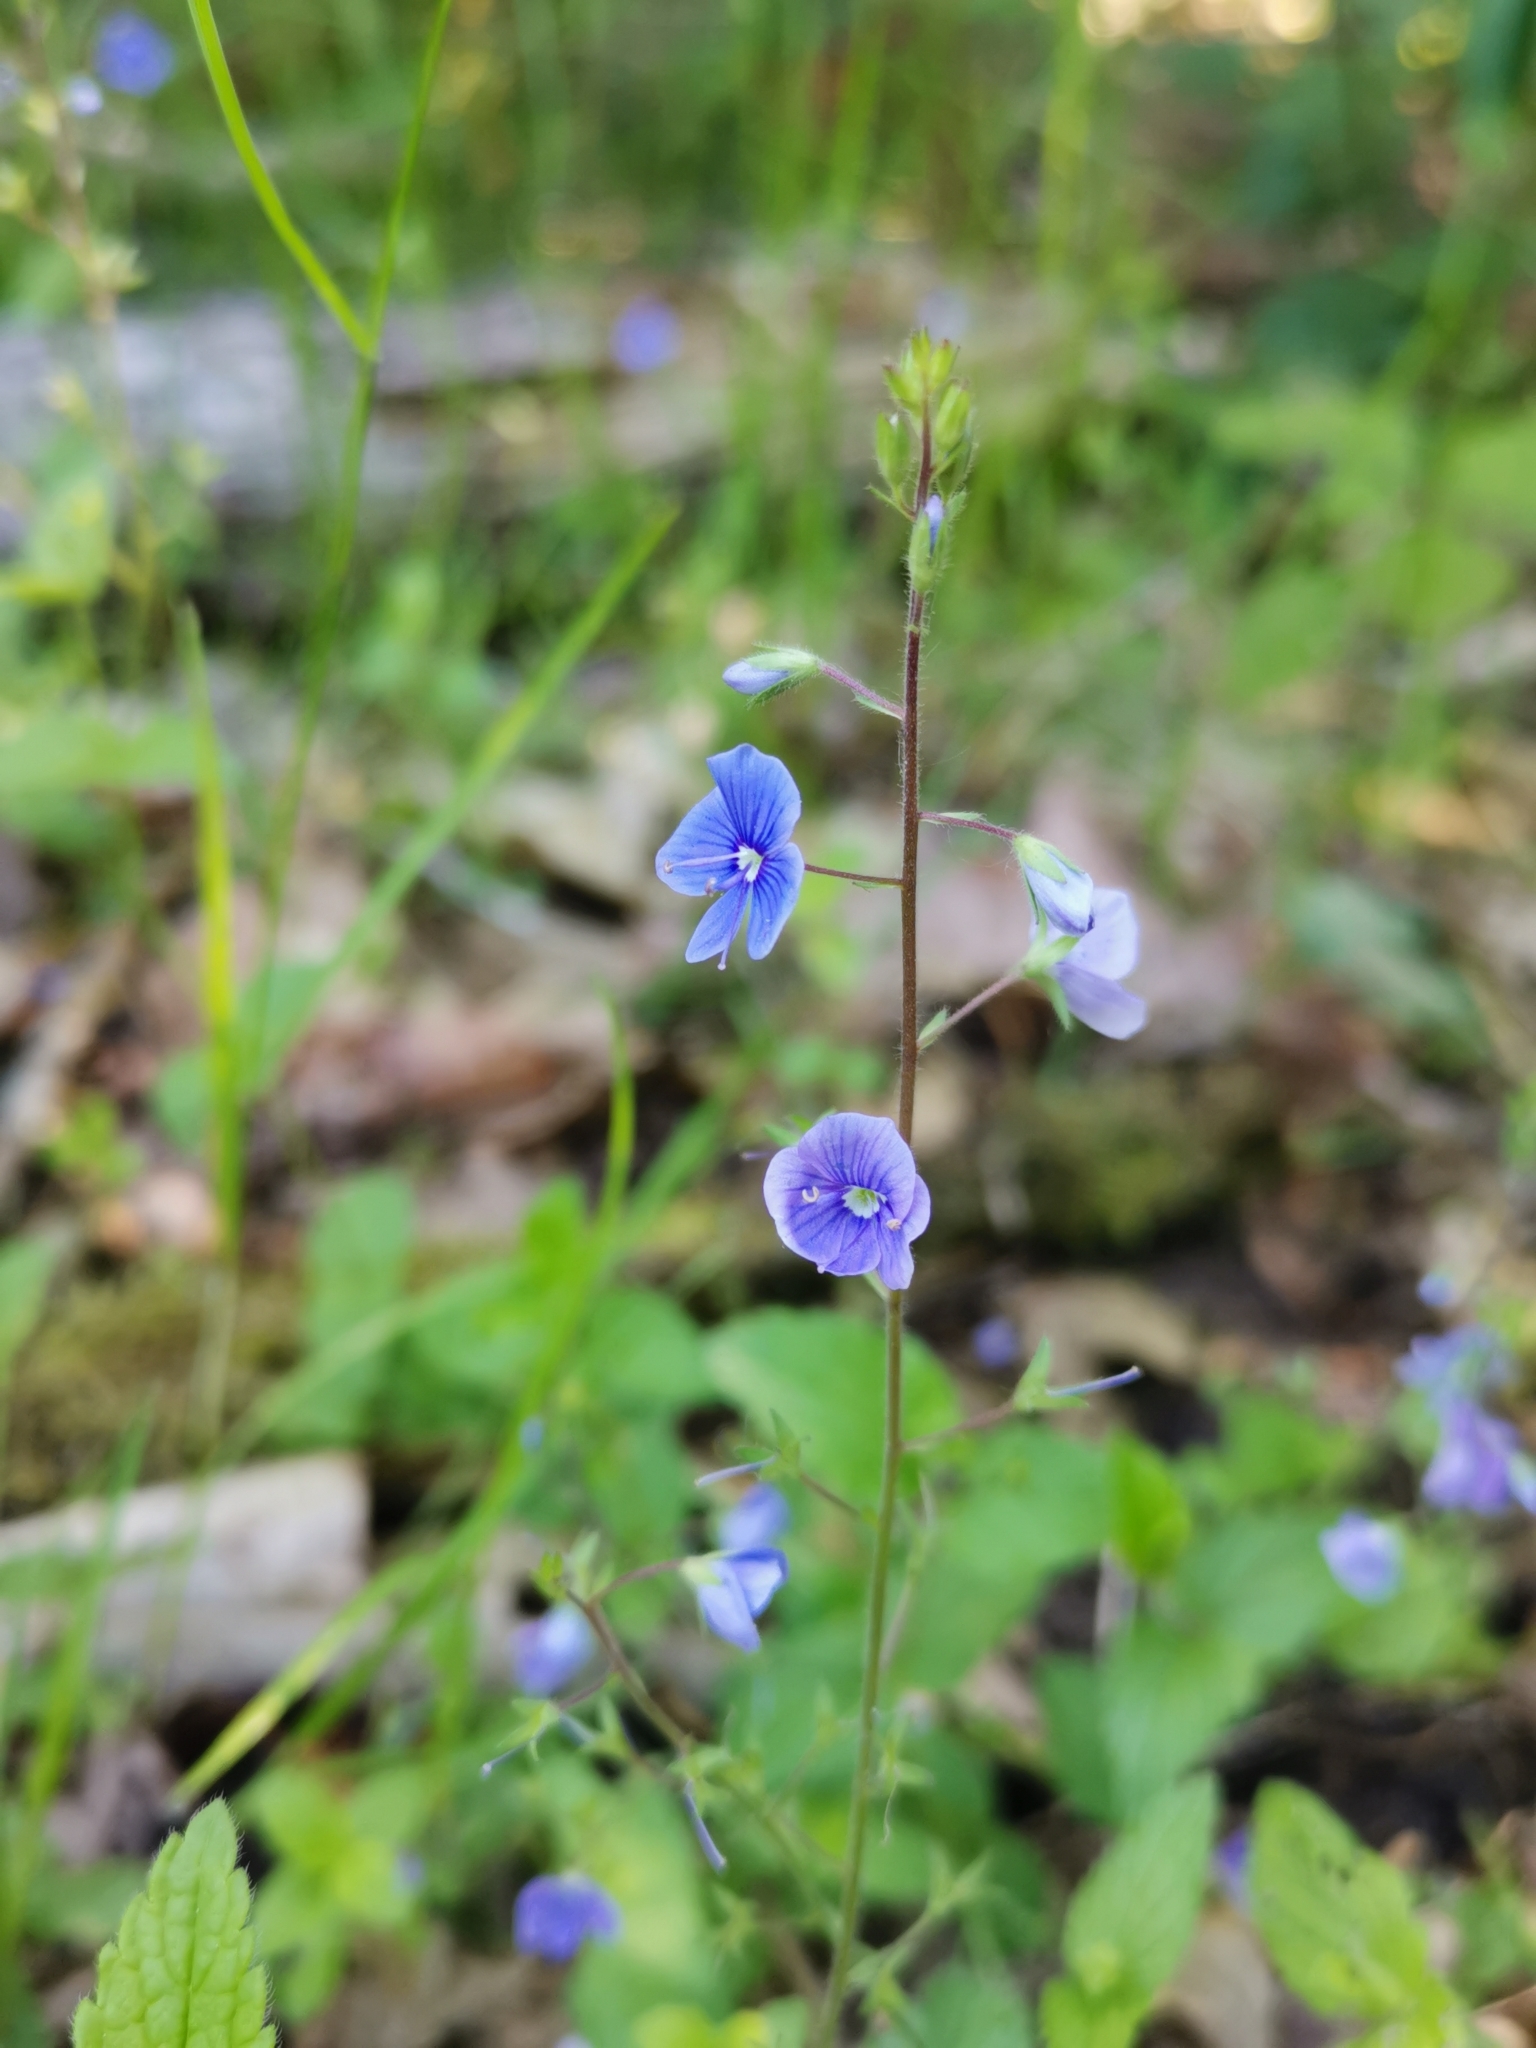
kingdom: Plantae
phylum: Tracheophyta
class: Magnoliopsida
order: Lamiales
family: Plantaginaceae
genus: Veronica
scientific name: Veronica chamaedrys
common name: Germander speedwell
